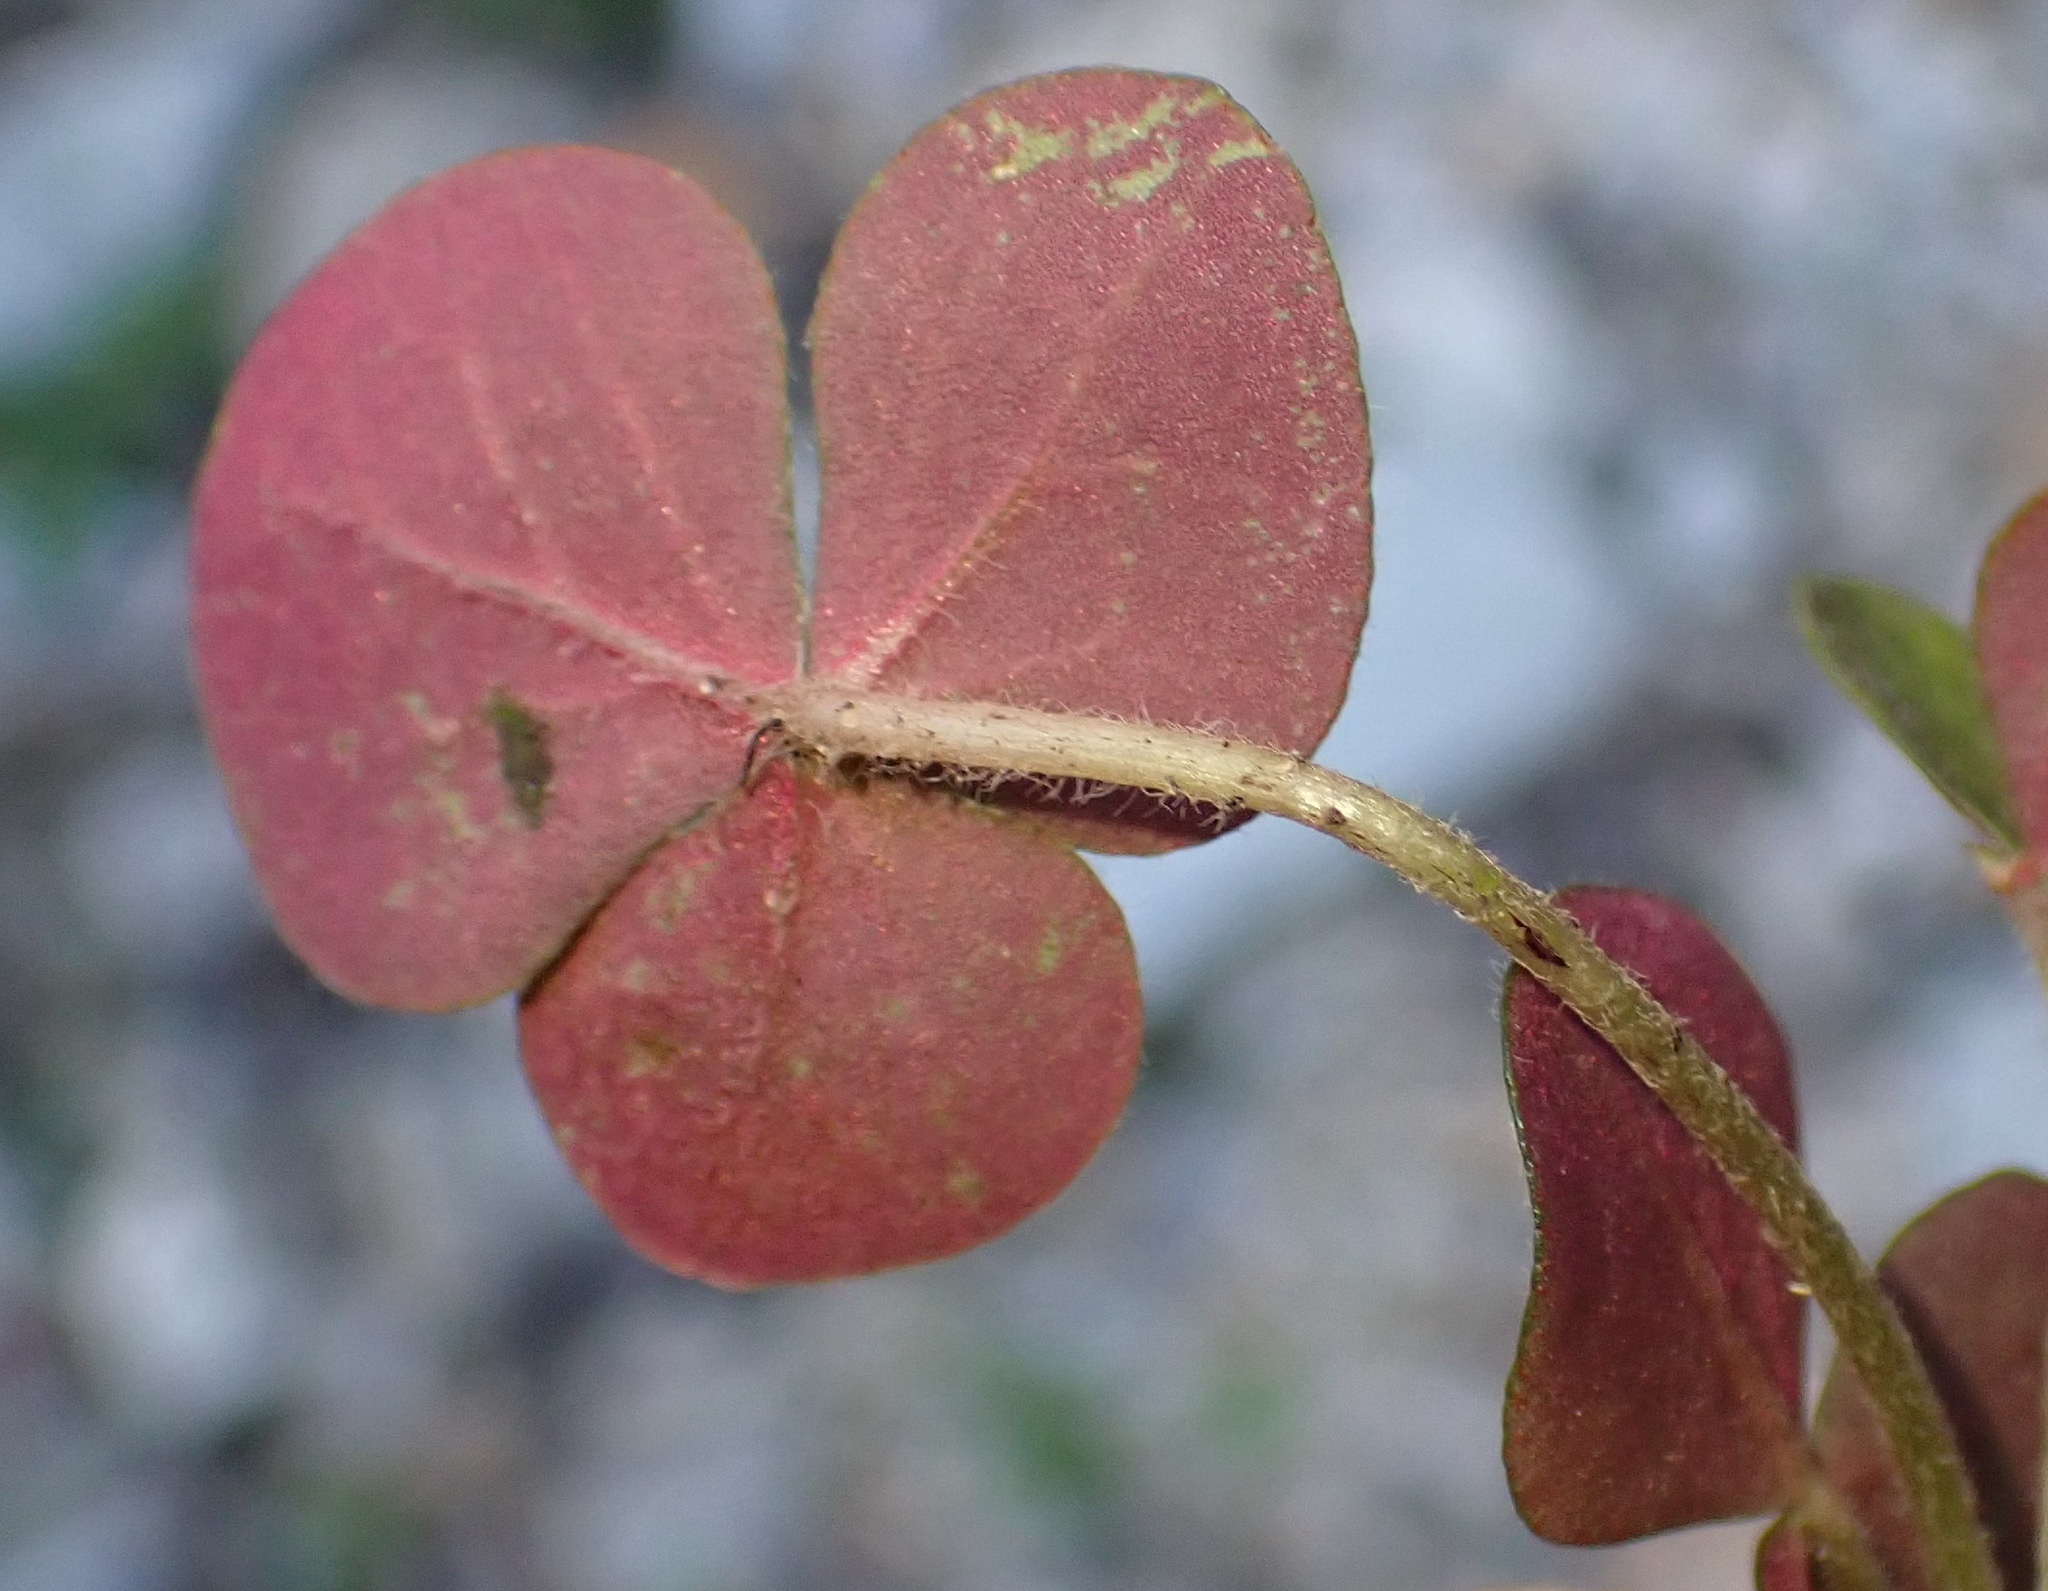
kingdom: Plantae
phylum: Tracheophyta
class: Magnoliopsida
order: Oxalidales
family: Oxalidaceae
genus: Oxalis
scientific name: Oxalis algoensis
